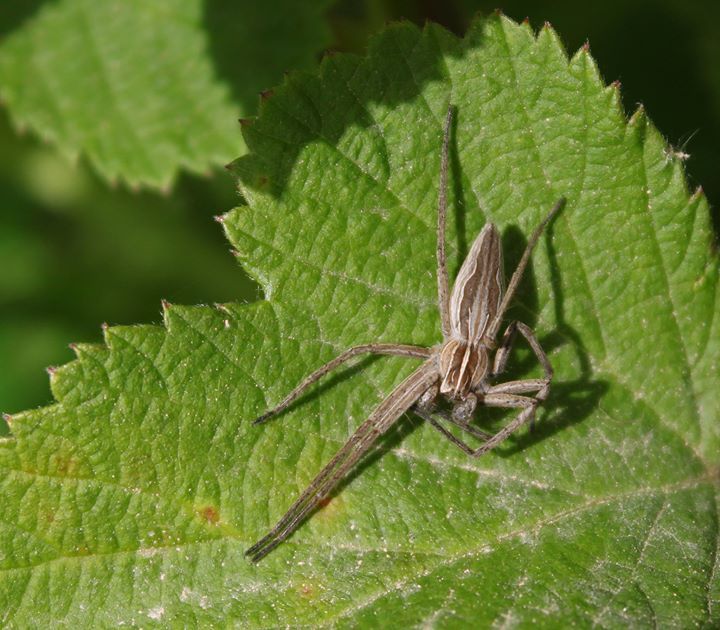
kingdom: Animalia
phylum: Arthropoda
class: Arachnida
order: Araneae
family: Pisauridae
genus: Pisaura
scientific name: Pisaura mirabilis
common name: Tent spider
